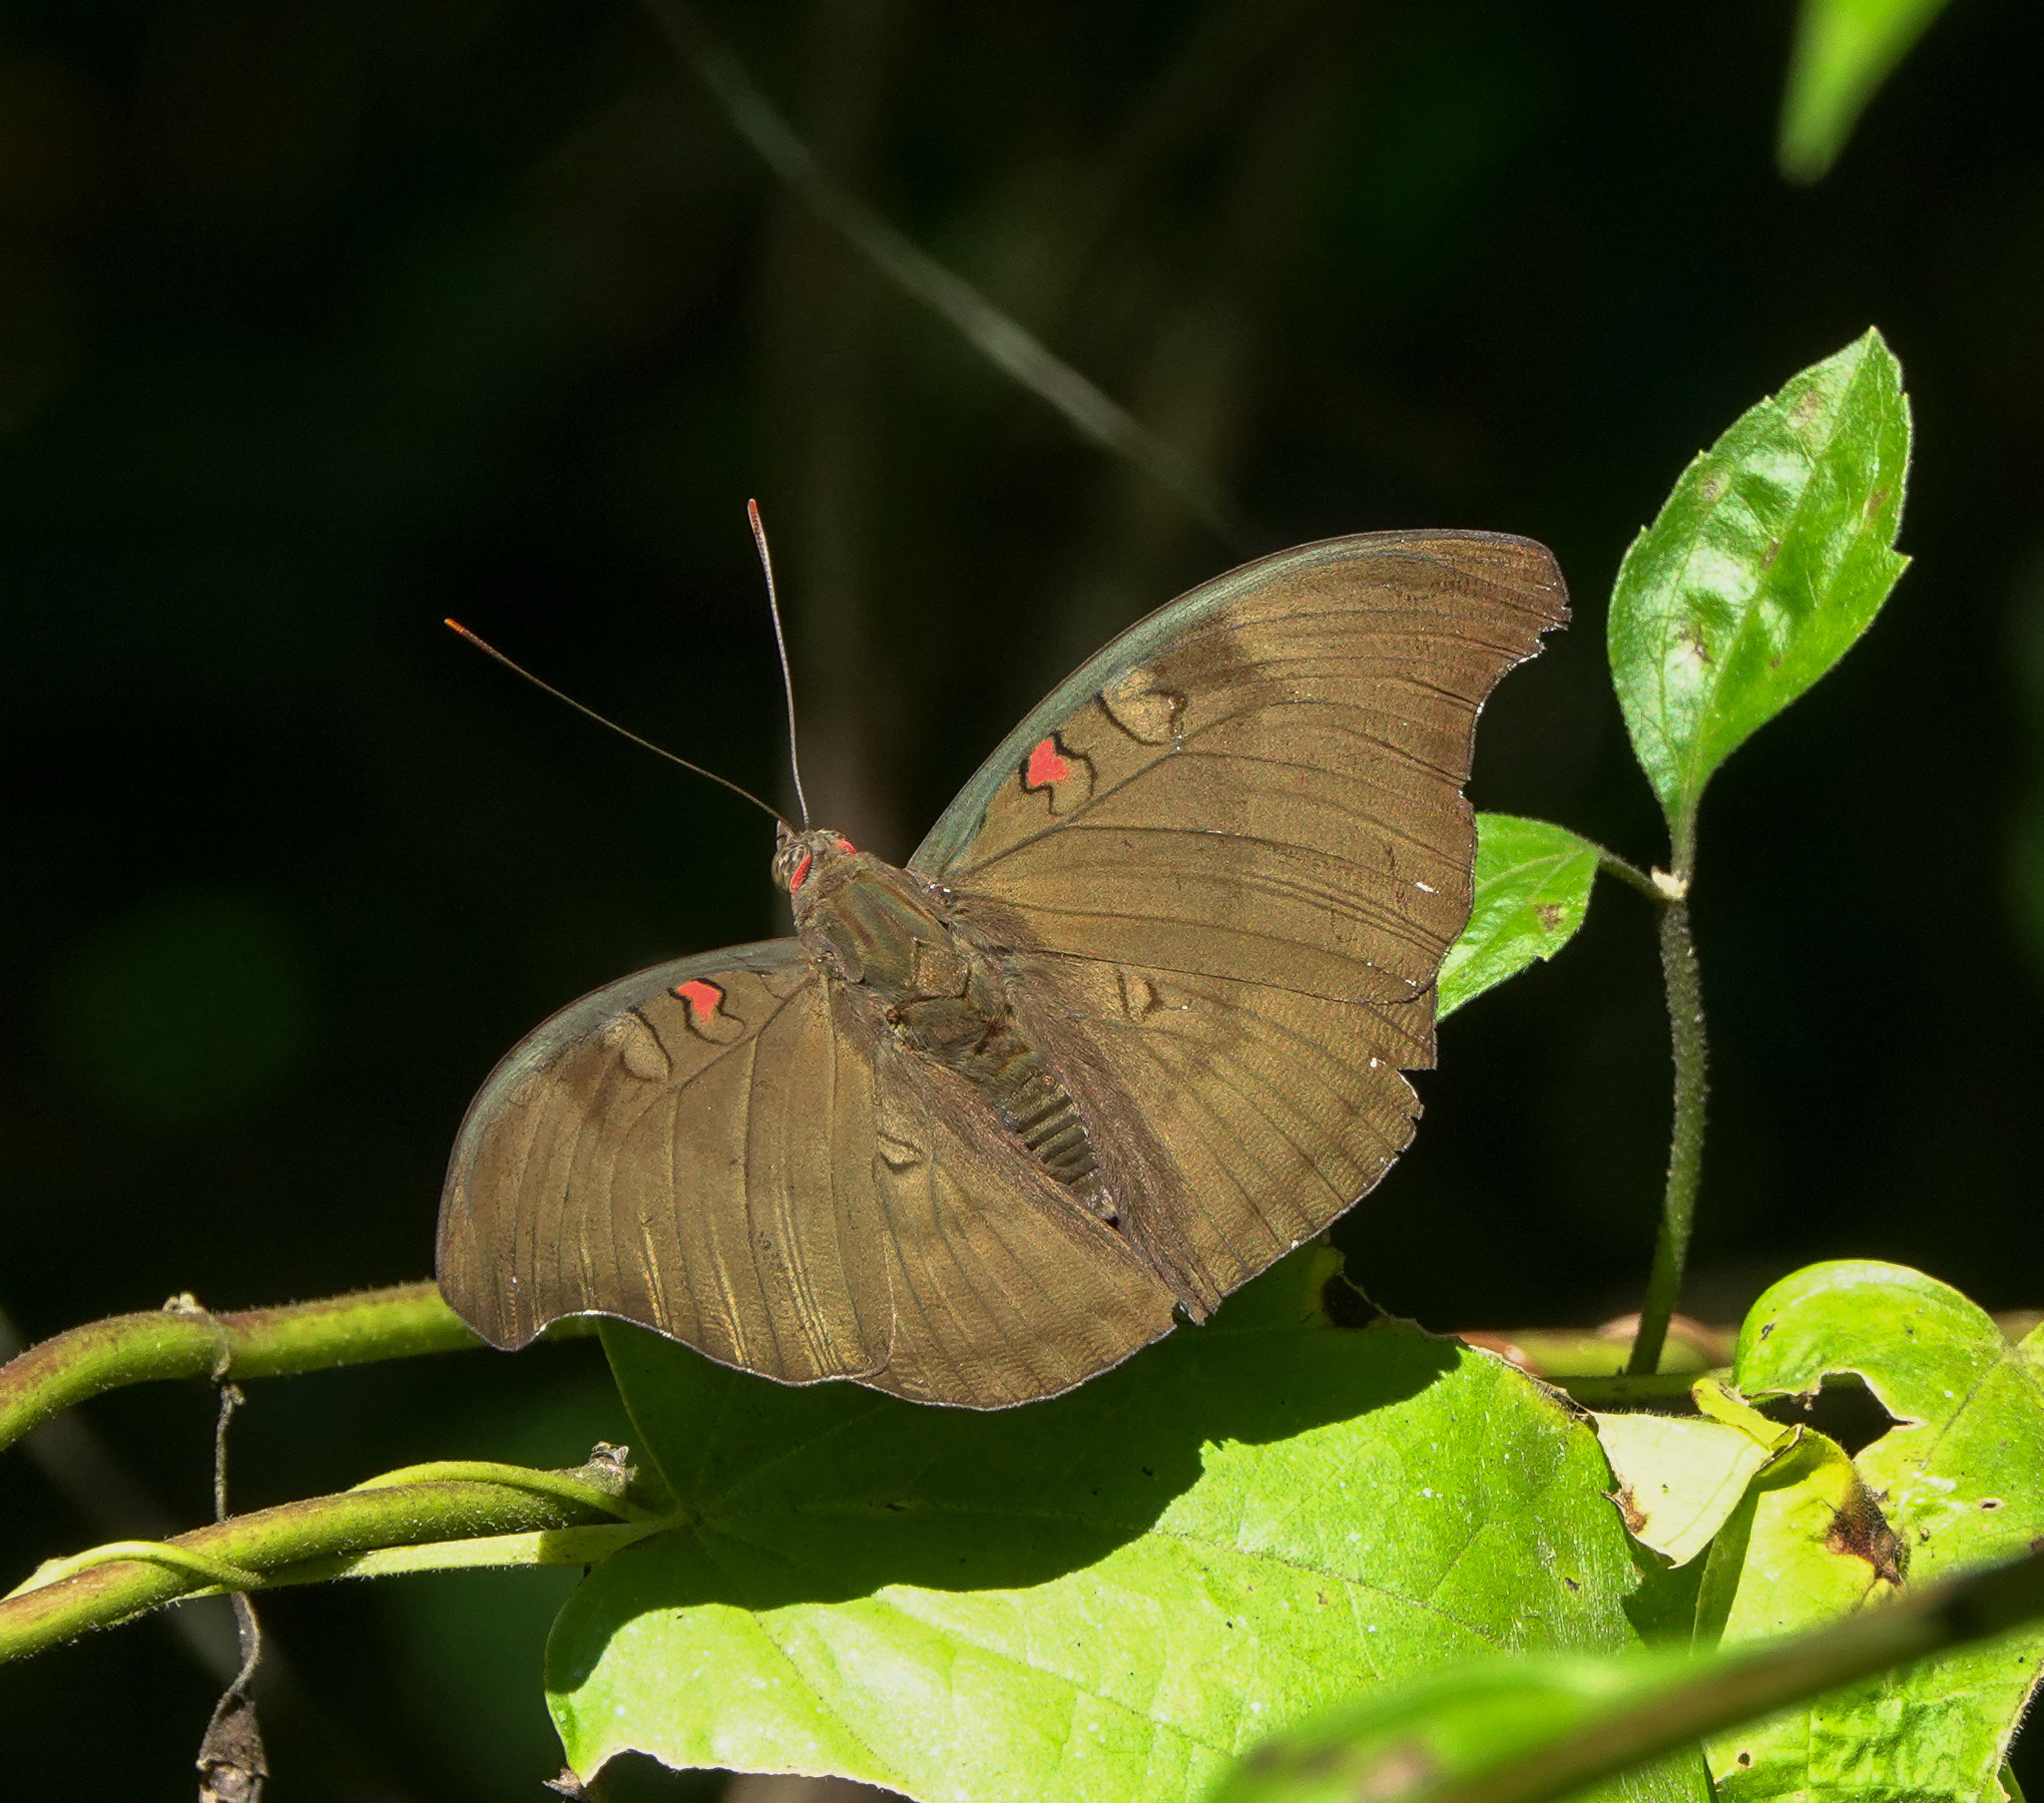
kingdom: Animalia
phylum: Arthropoda
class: Insecta
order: Lepidoptera
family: Nymphalidae
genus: Euthalia
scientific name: Euthalia Dophla evelina
